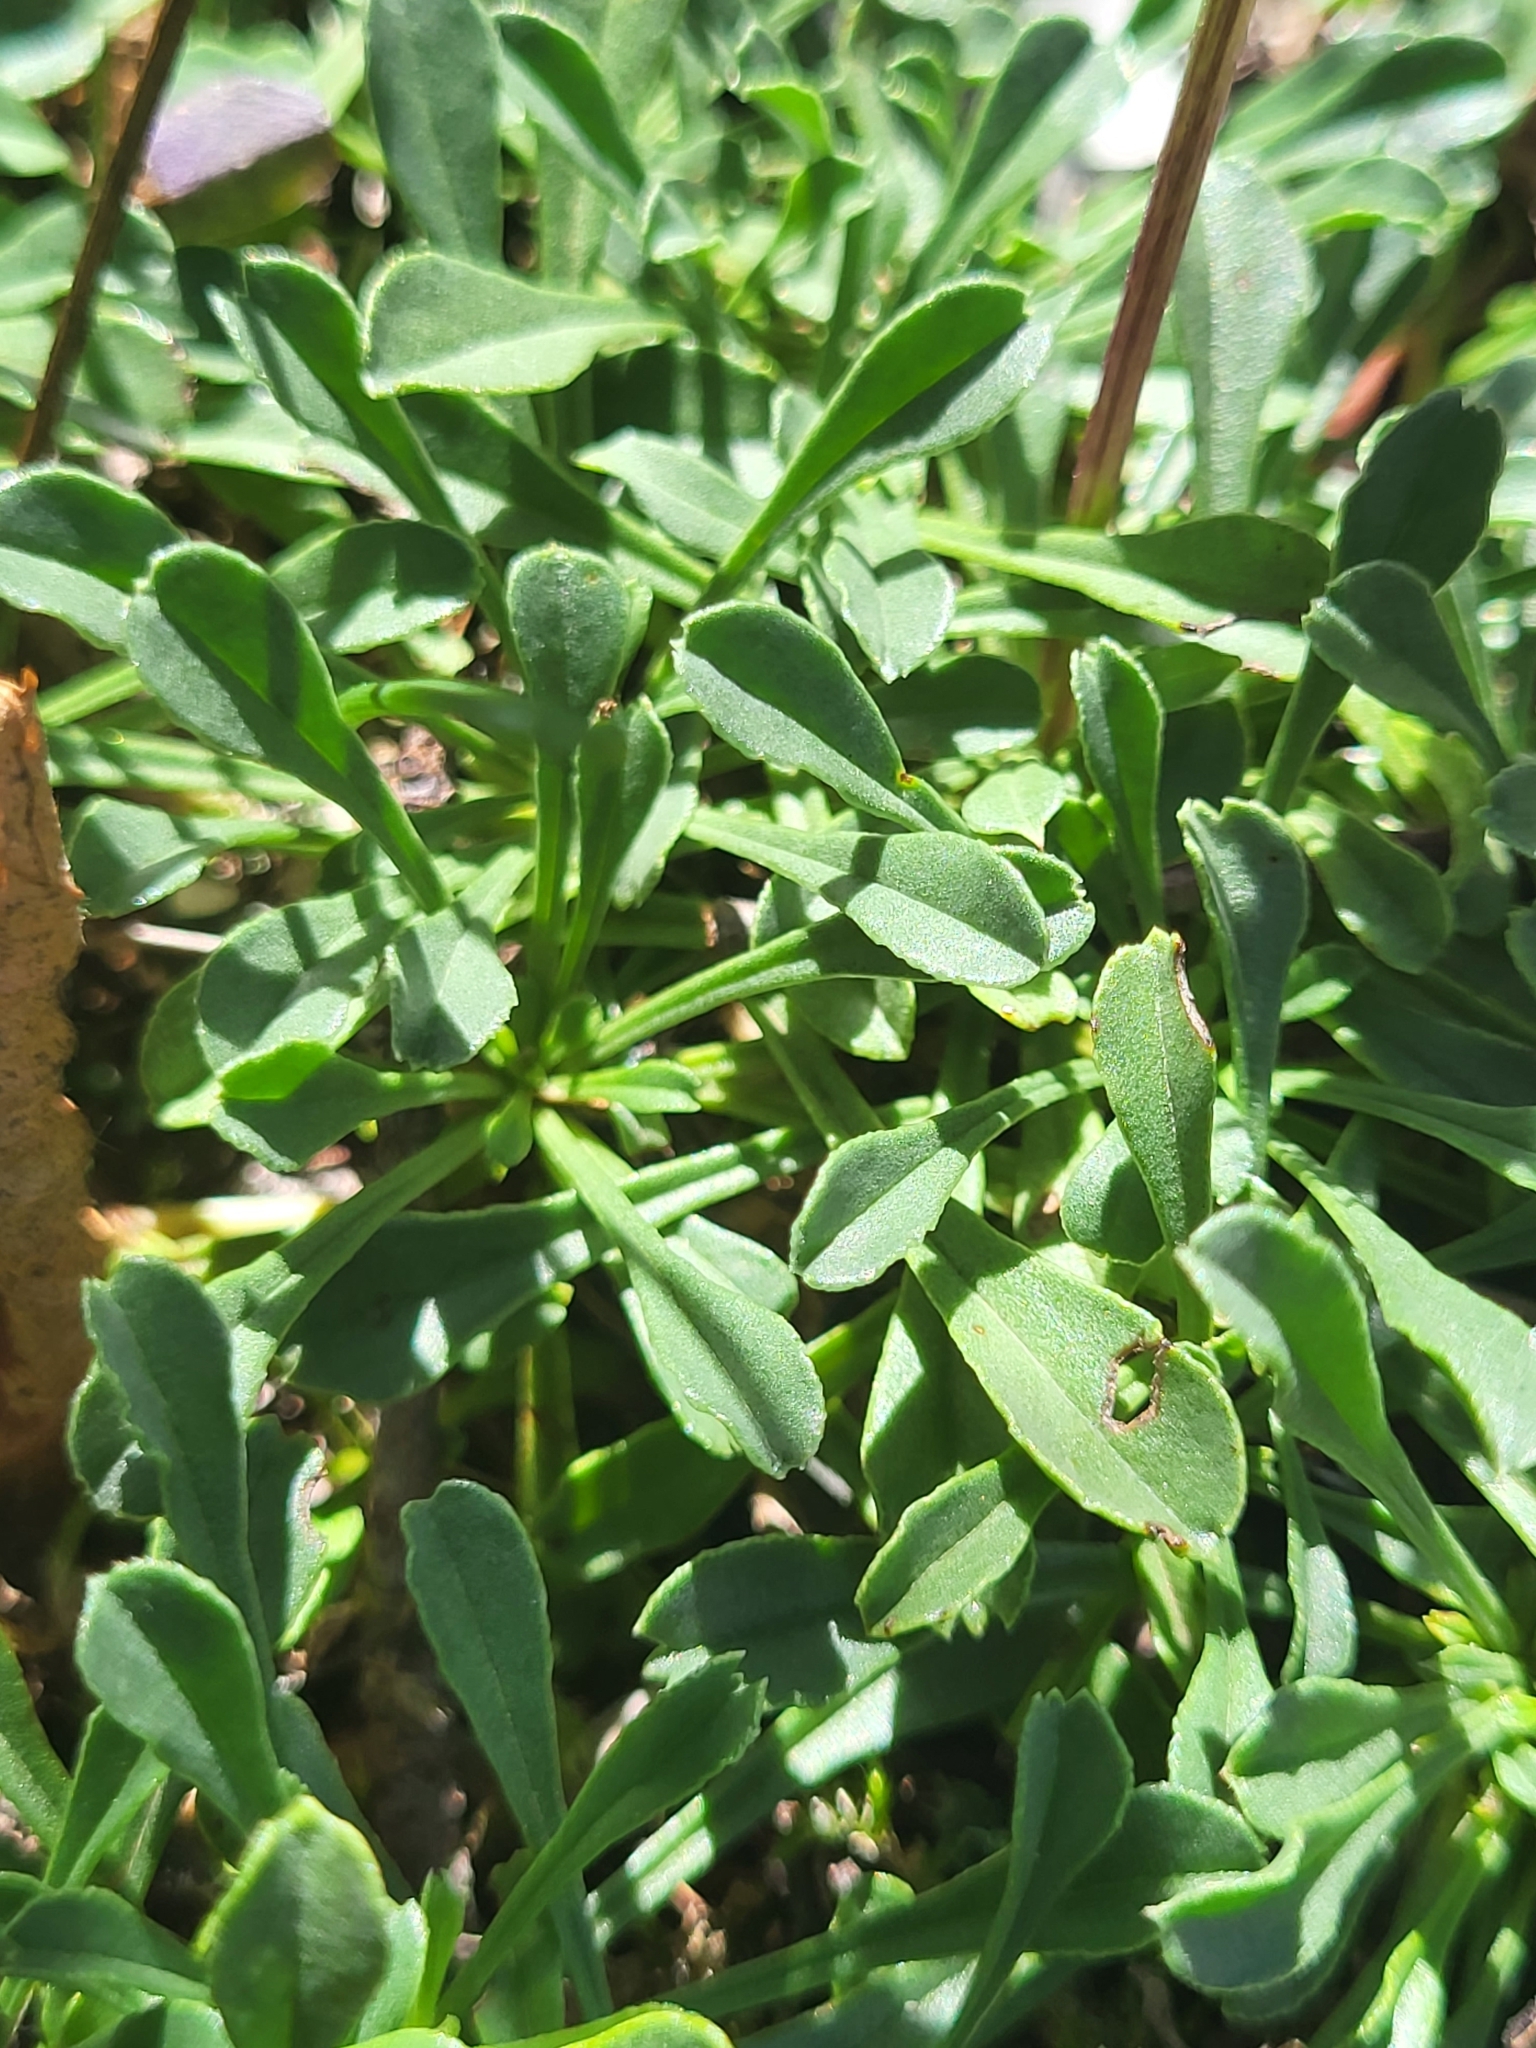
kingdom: Plantae
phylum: Tracheophyta
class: Magnoliopsida
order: Lamiales
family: Plantaginaceae
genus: Globularia
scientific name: Globularia cordifolia
